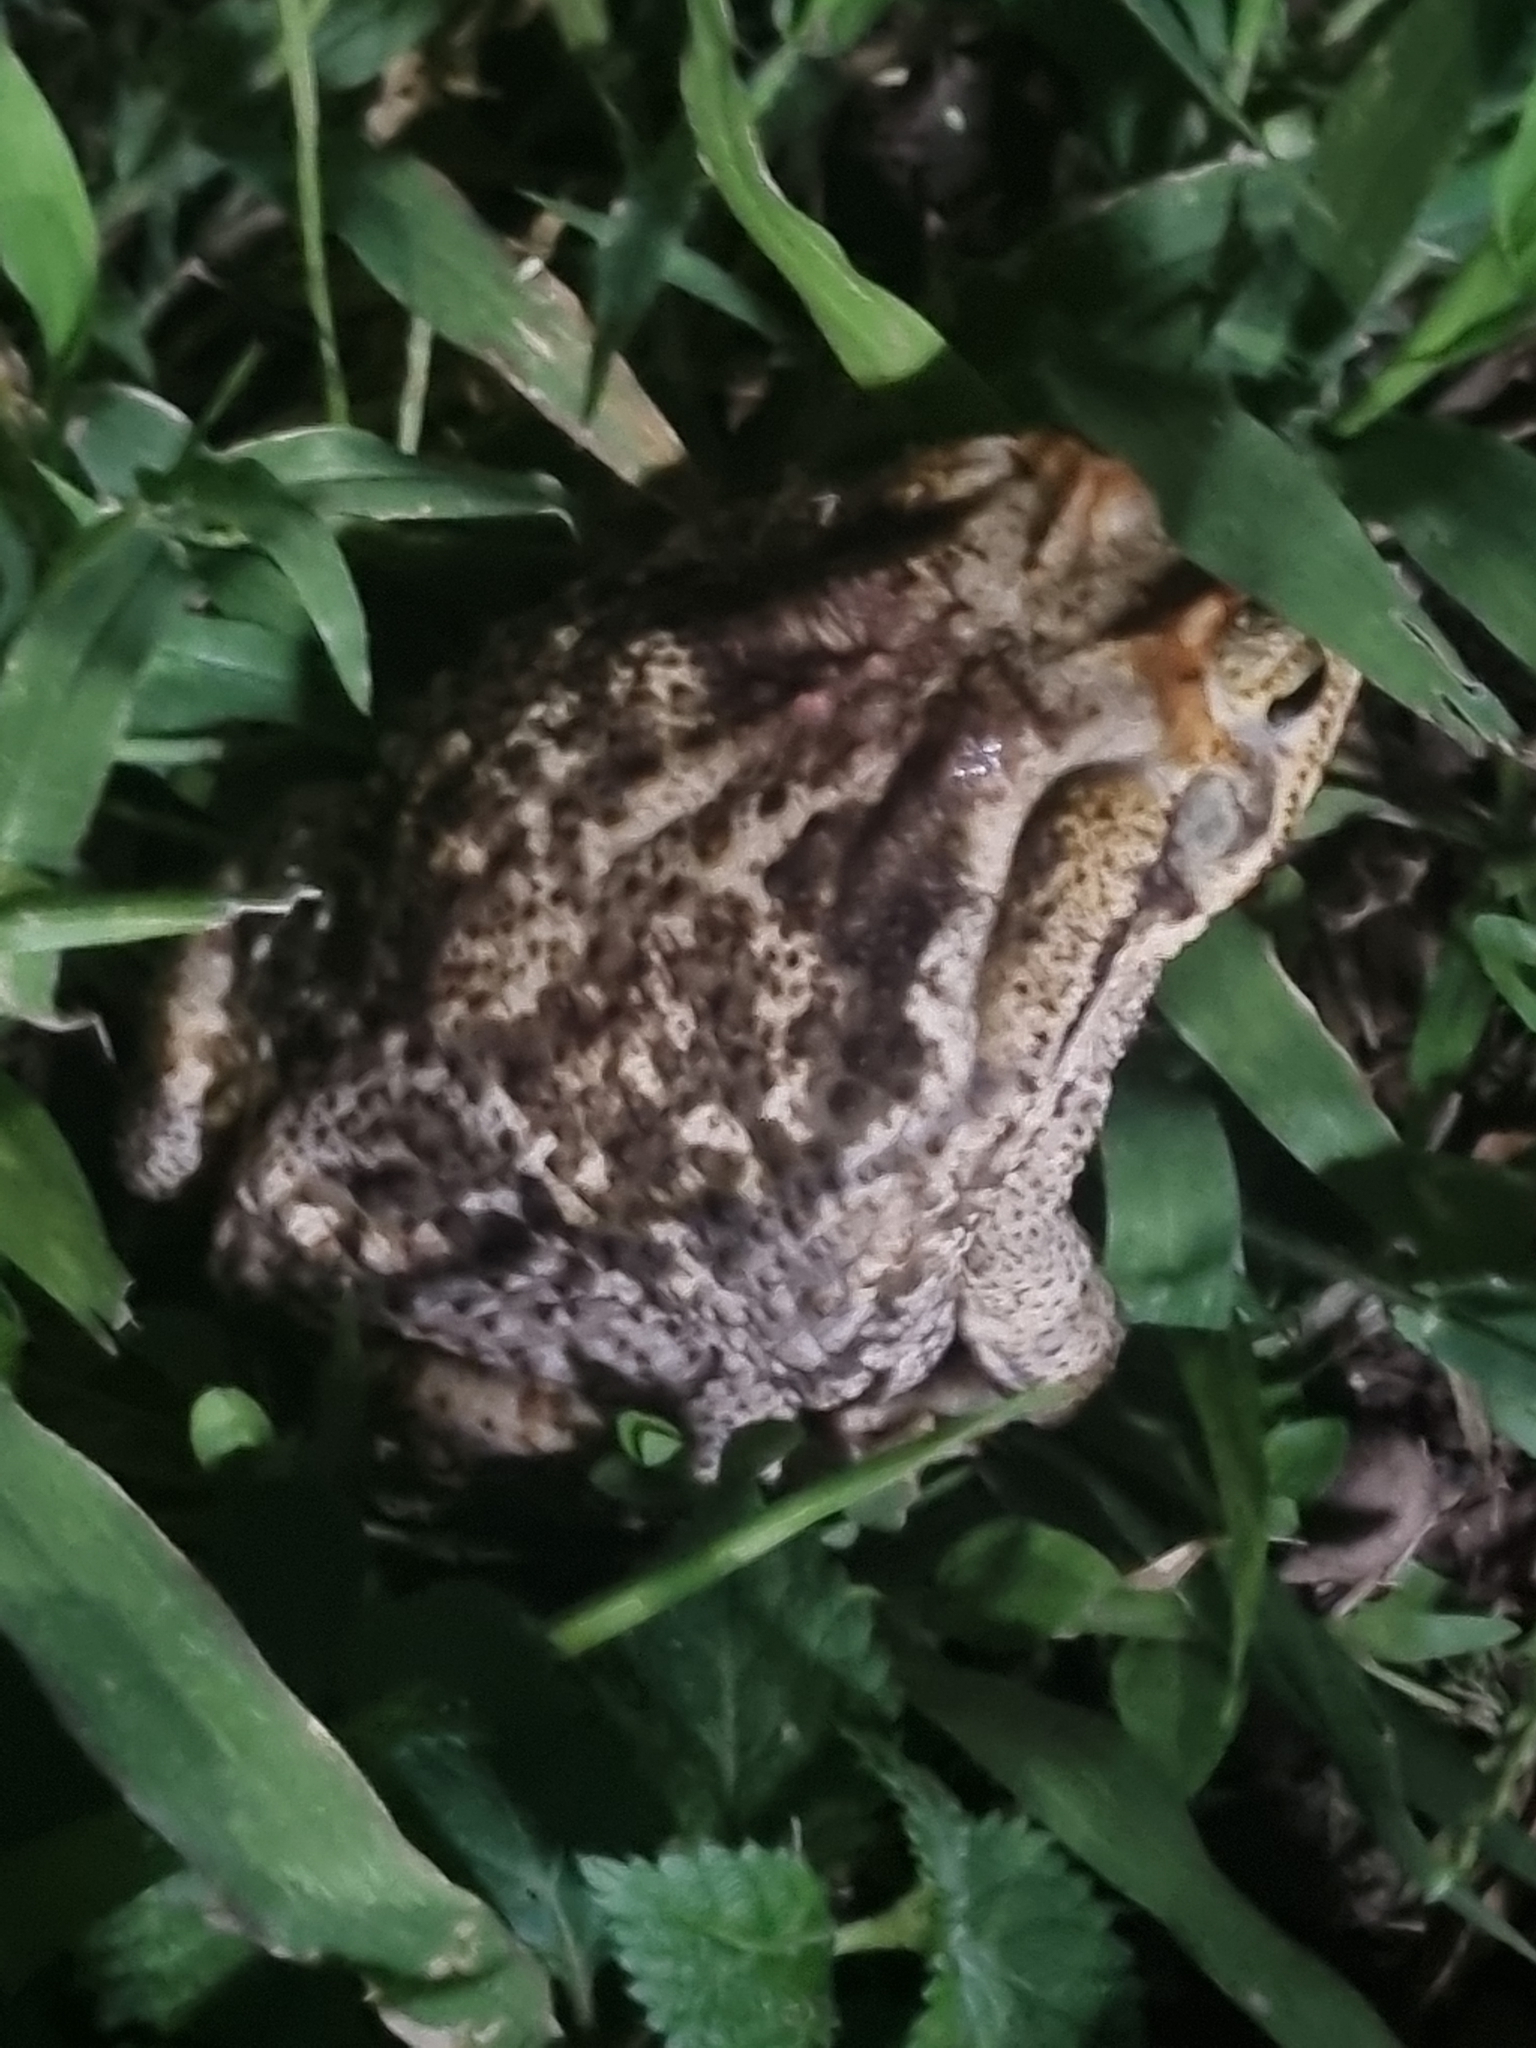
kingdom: Animalia
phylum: Chordata
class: Amphibia
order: Anura
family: Bufonidae
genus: Rhinella
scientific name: Rhinella diptycha
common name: Cope's toad
